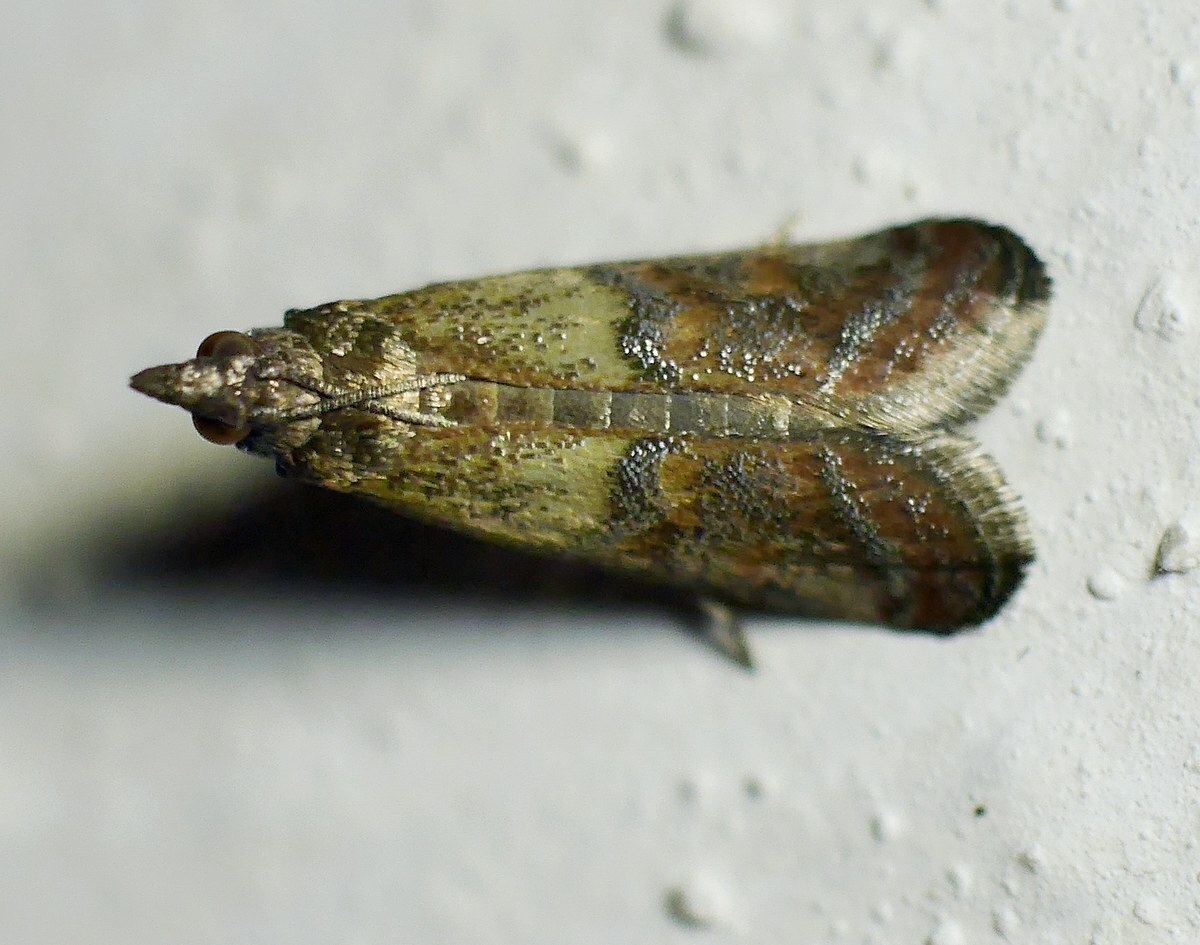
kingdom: Animalia
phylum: Arthropoda
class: Insecta
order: Lepidoptera
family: Pyralidae
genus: Plodia
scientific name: Plodia interpunctella
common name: Indian meal moth
